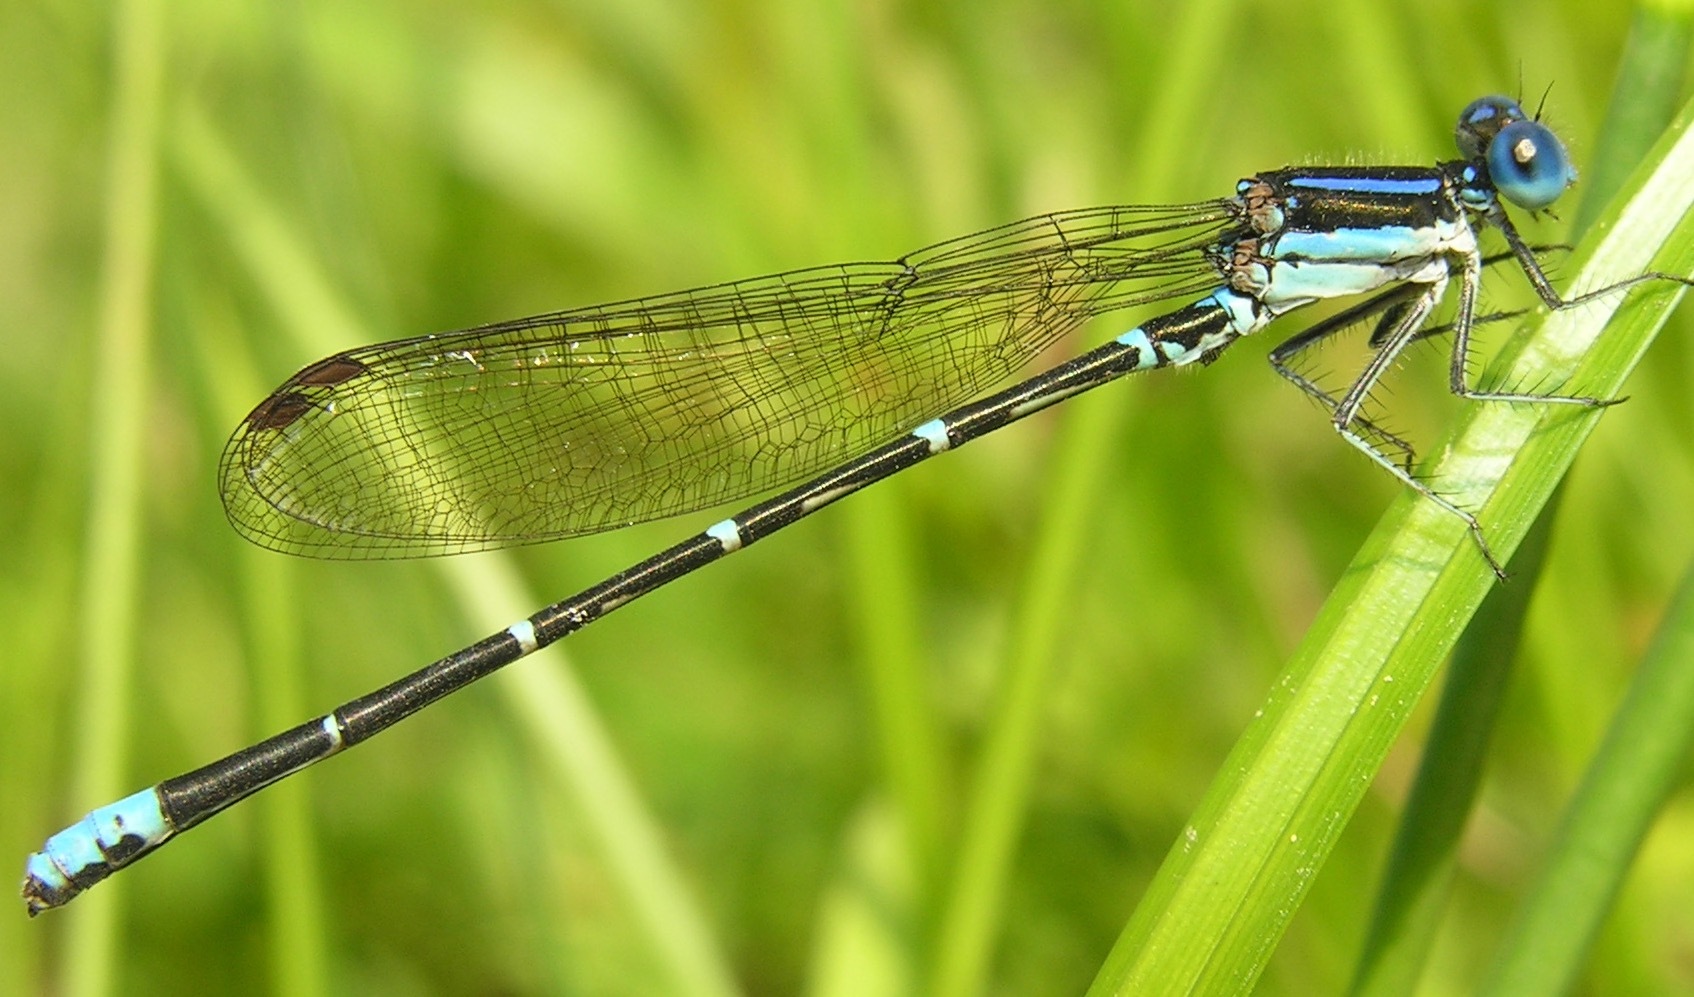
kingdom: Animalia
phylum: Arthropoda
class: Insecta
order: Odonata
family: Coenagrionidae
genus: Argia
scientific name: Argia sedula
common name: Blue-ringed dancer
